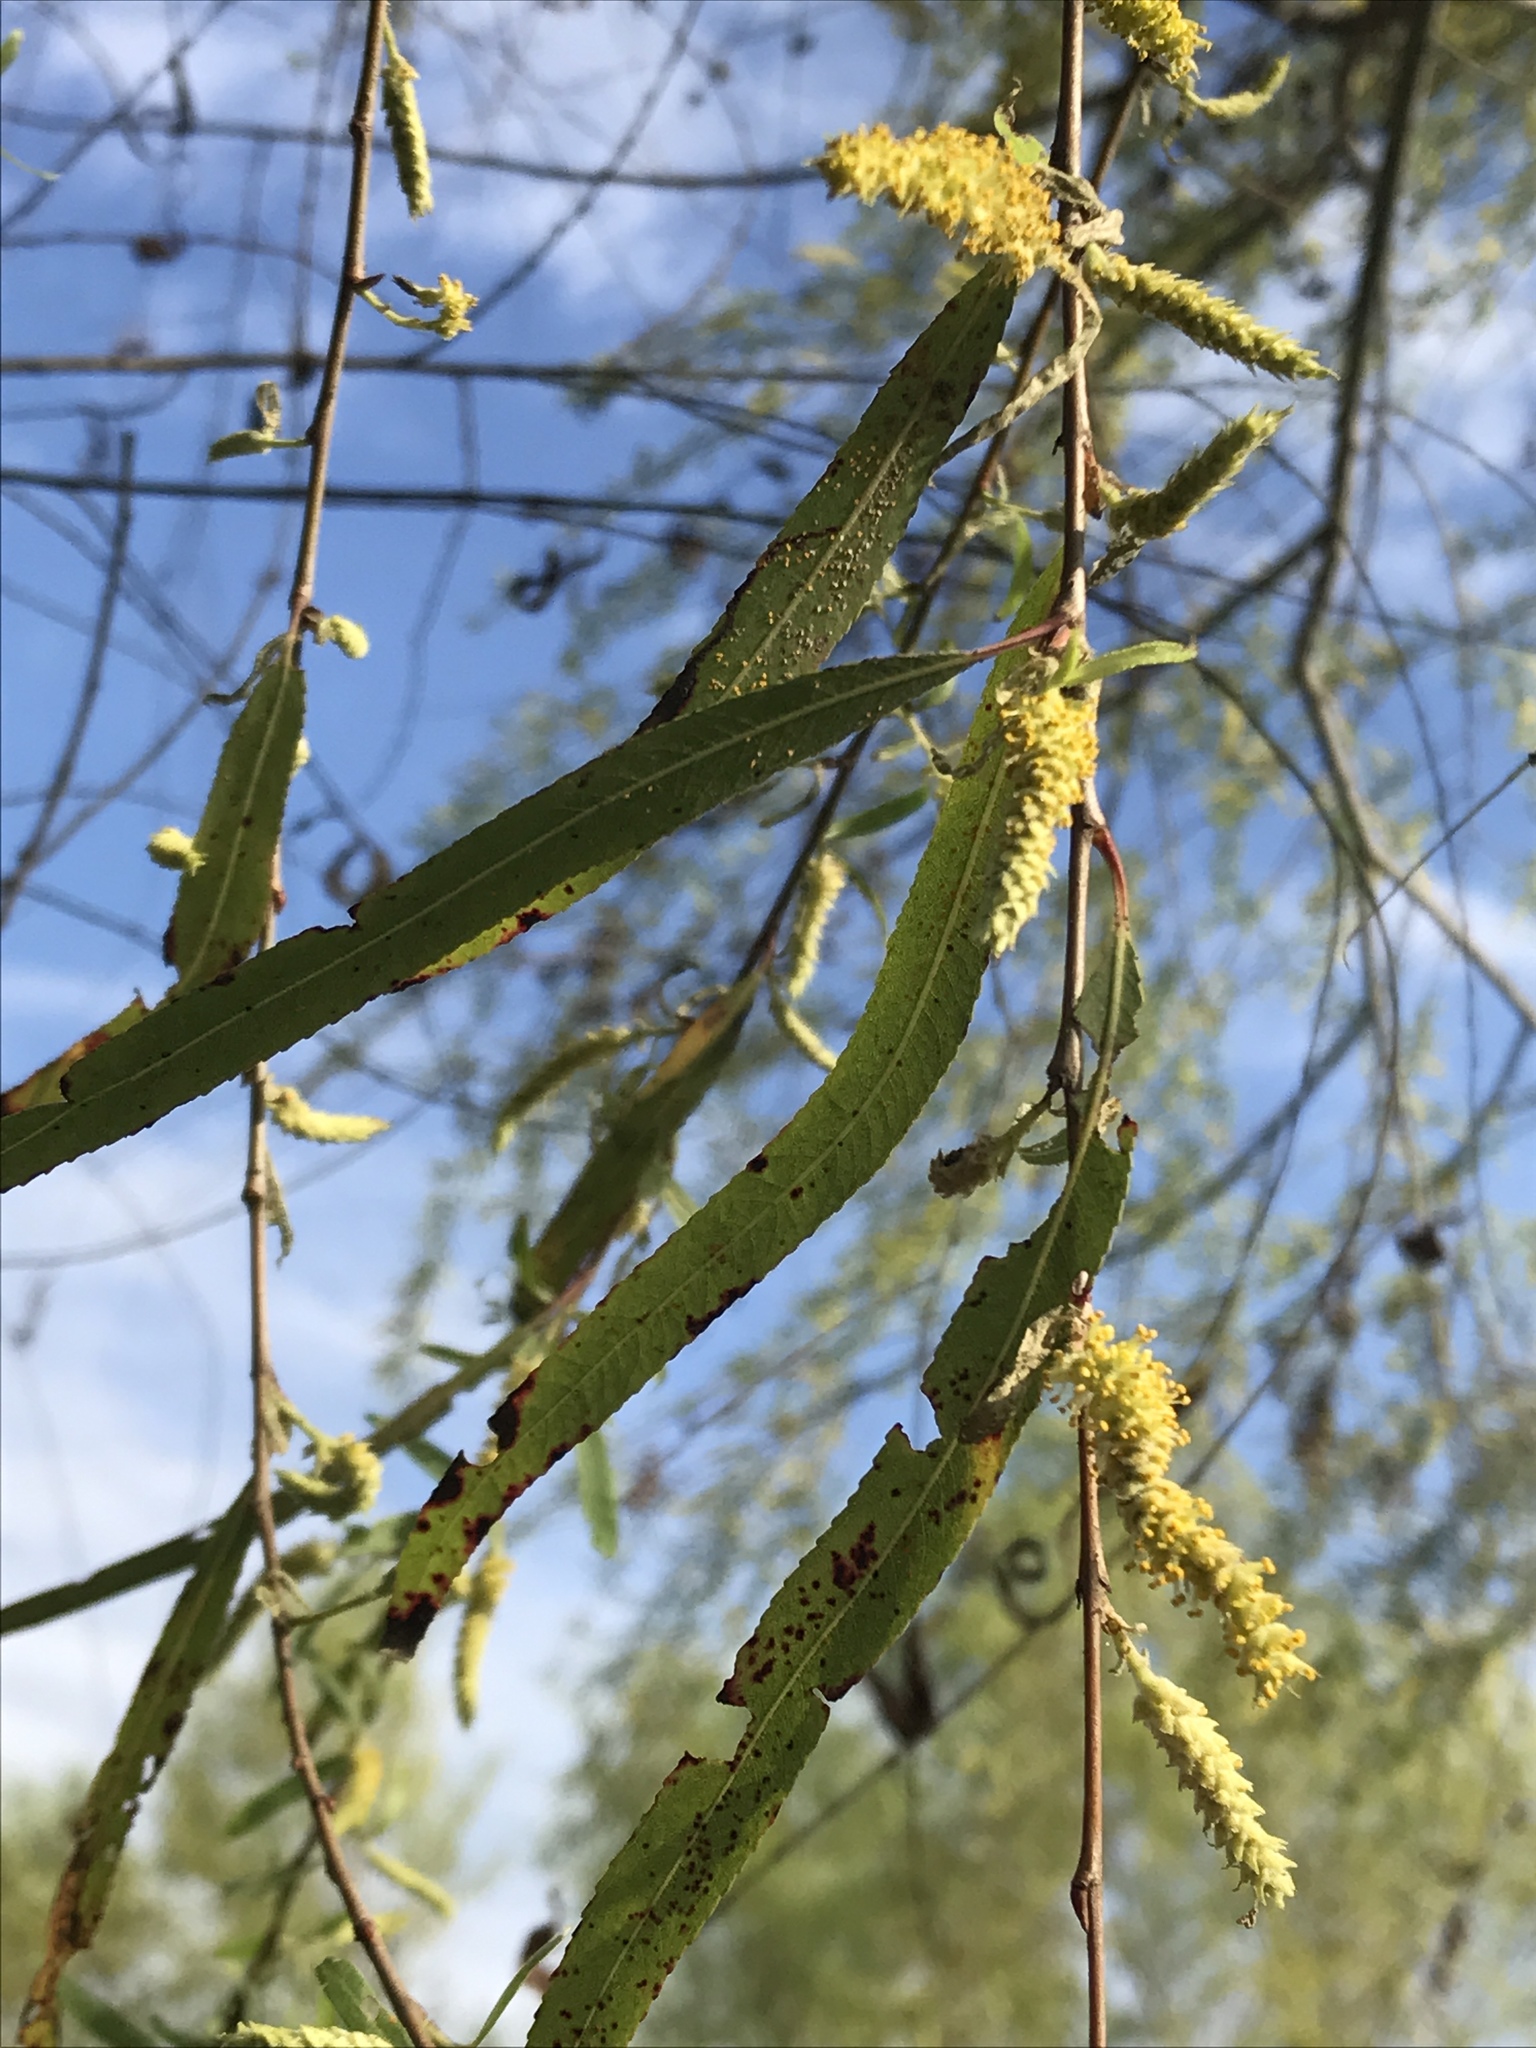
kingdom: Plantae
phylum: Tracheophyta
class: Magnoliopsida
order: Malpighiales
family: Salicaceae
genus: Salix
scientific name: Salix nigra
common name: Black willow
